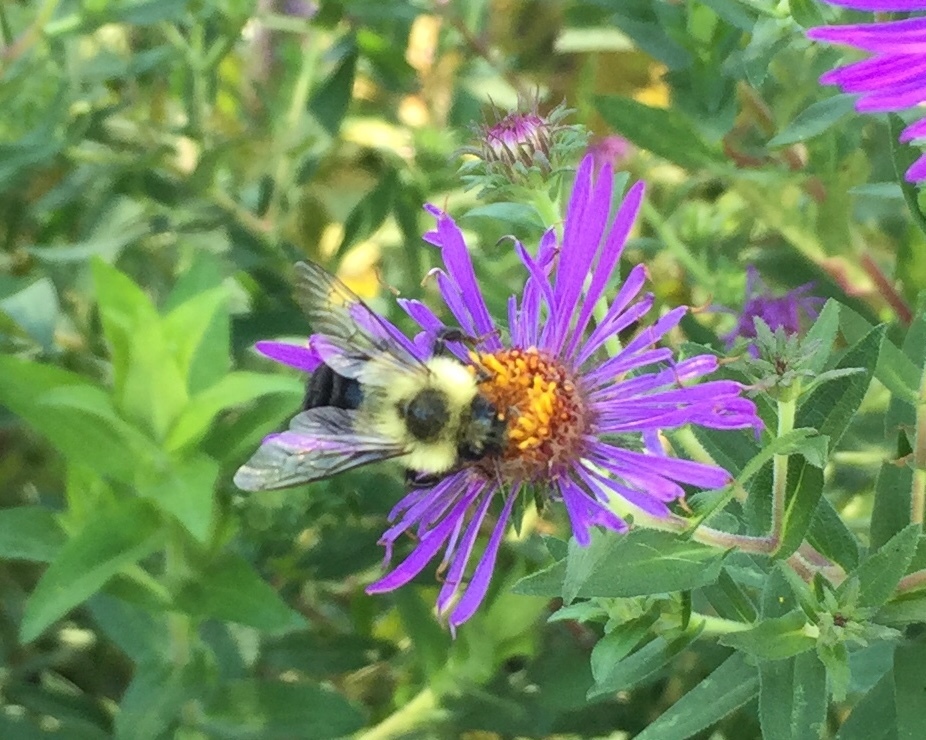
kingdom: Animalia
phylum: Arthropoda
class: Insecta
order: Hymenoptera
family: Apidae
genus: Bombus
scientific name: Bombus impatiens
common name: Common eastern bumble bee
